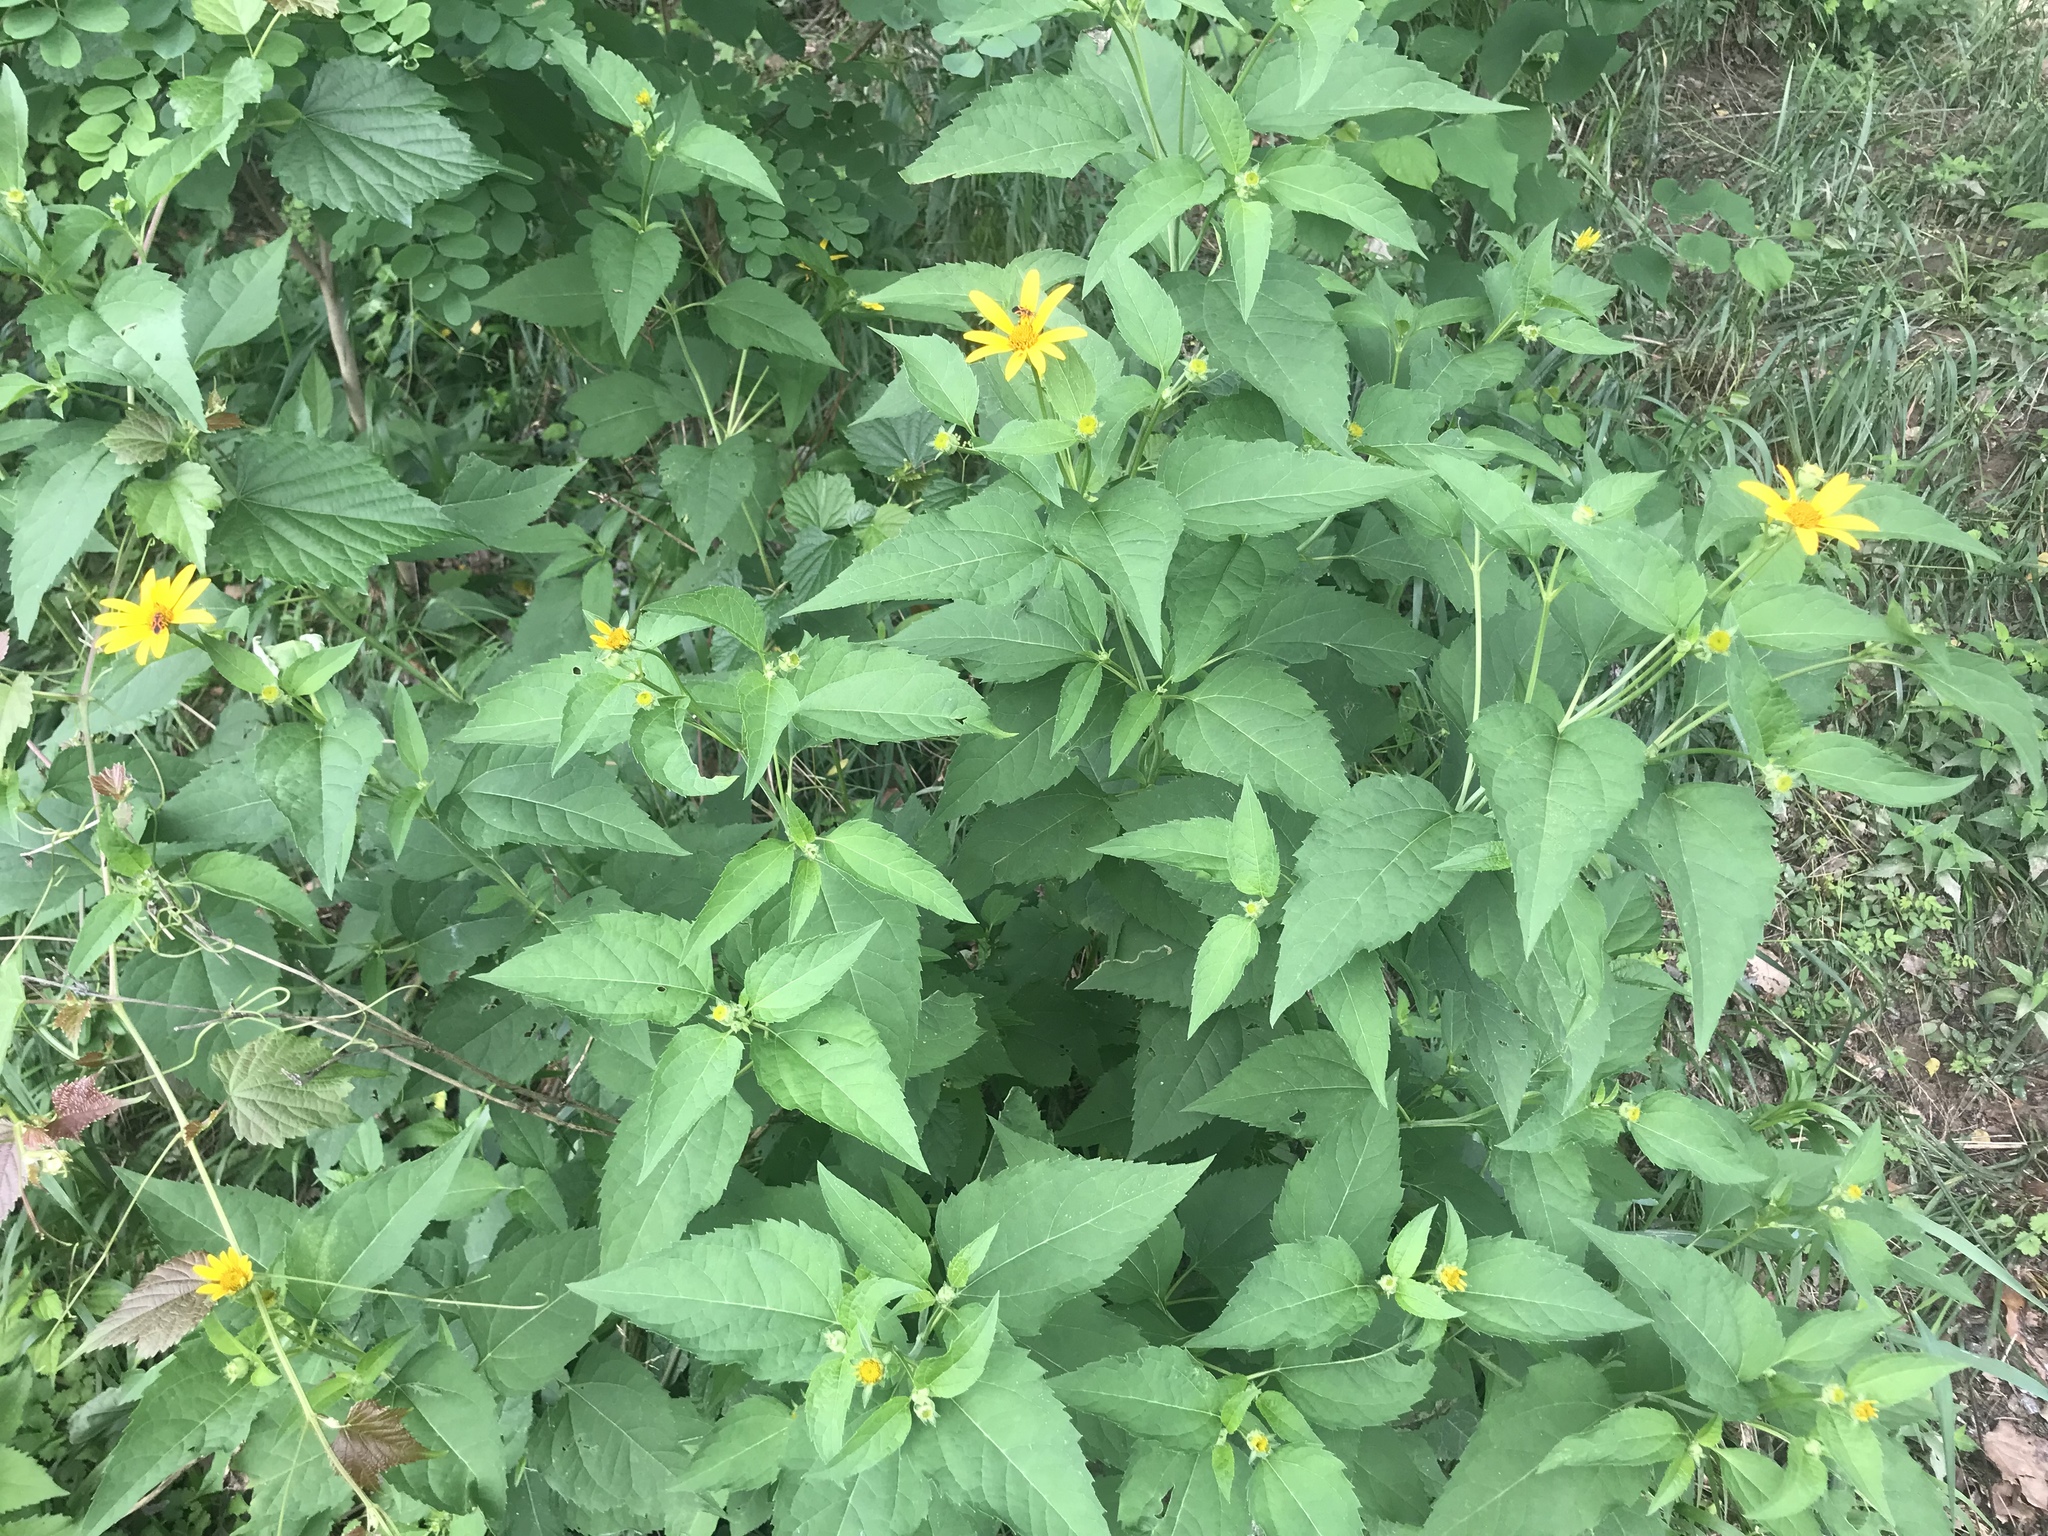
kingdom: Plantae
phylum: Tracheophyta
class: Magnoliopsida
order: Asterales
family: Asteraceae
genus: Heliopsis
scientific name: Heliopsis helianthoides
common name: False sunflower
